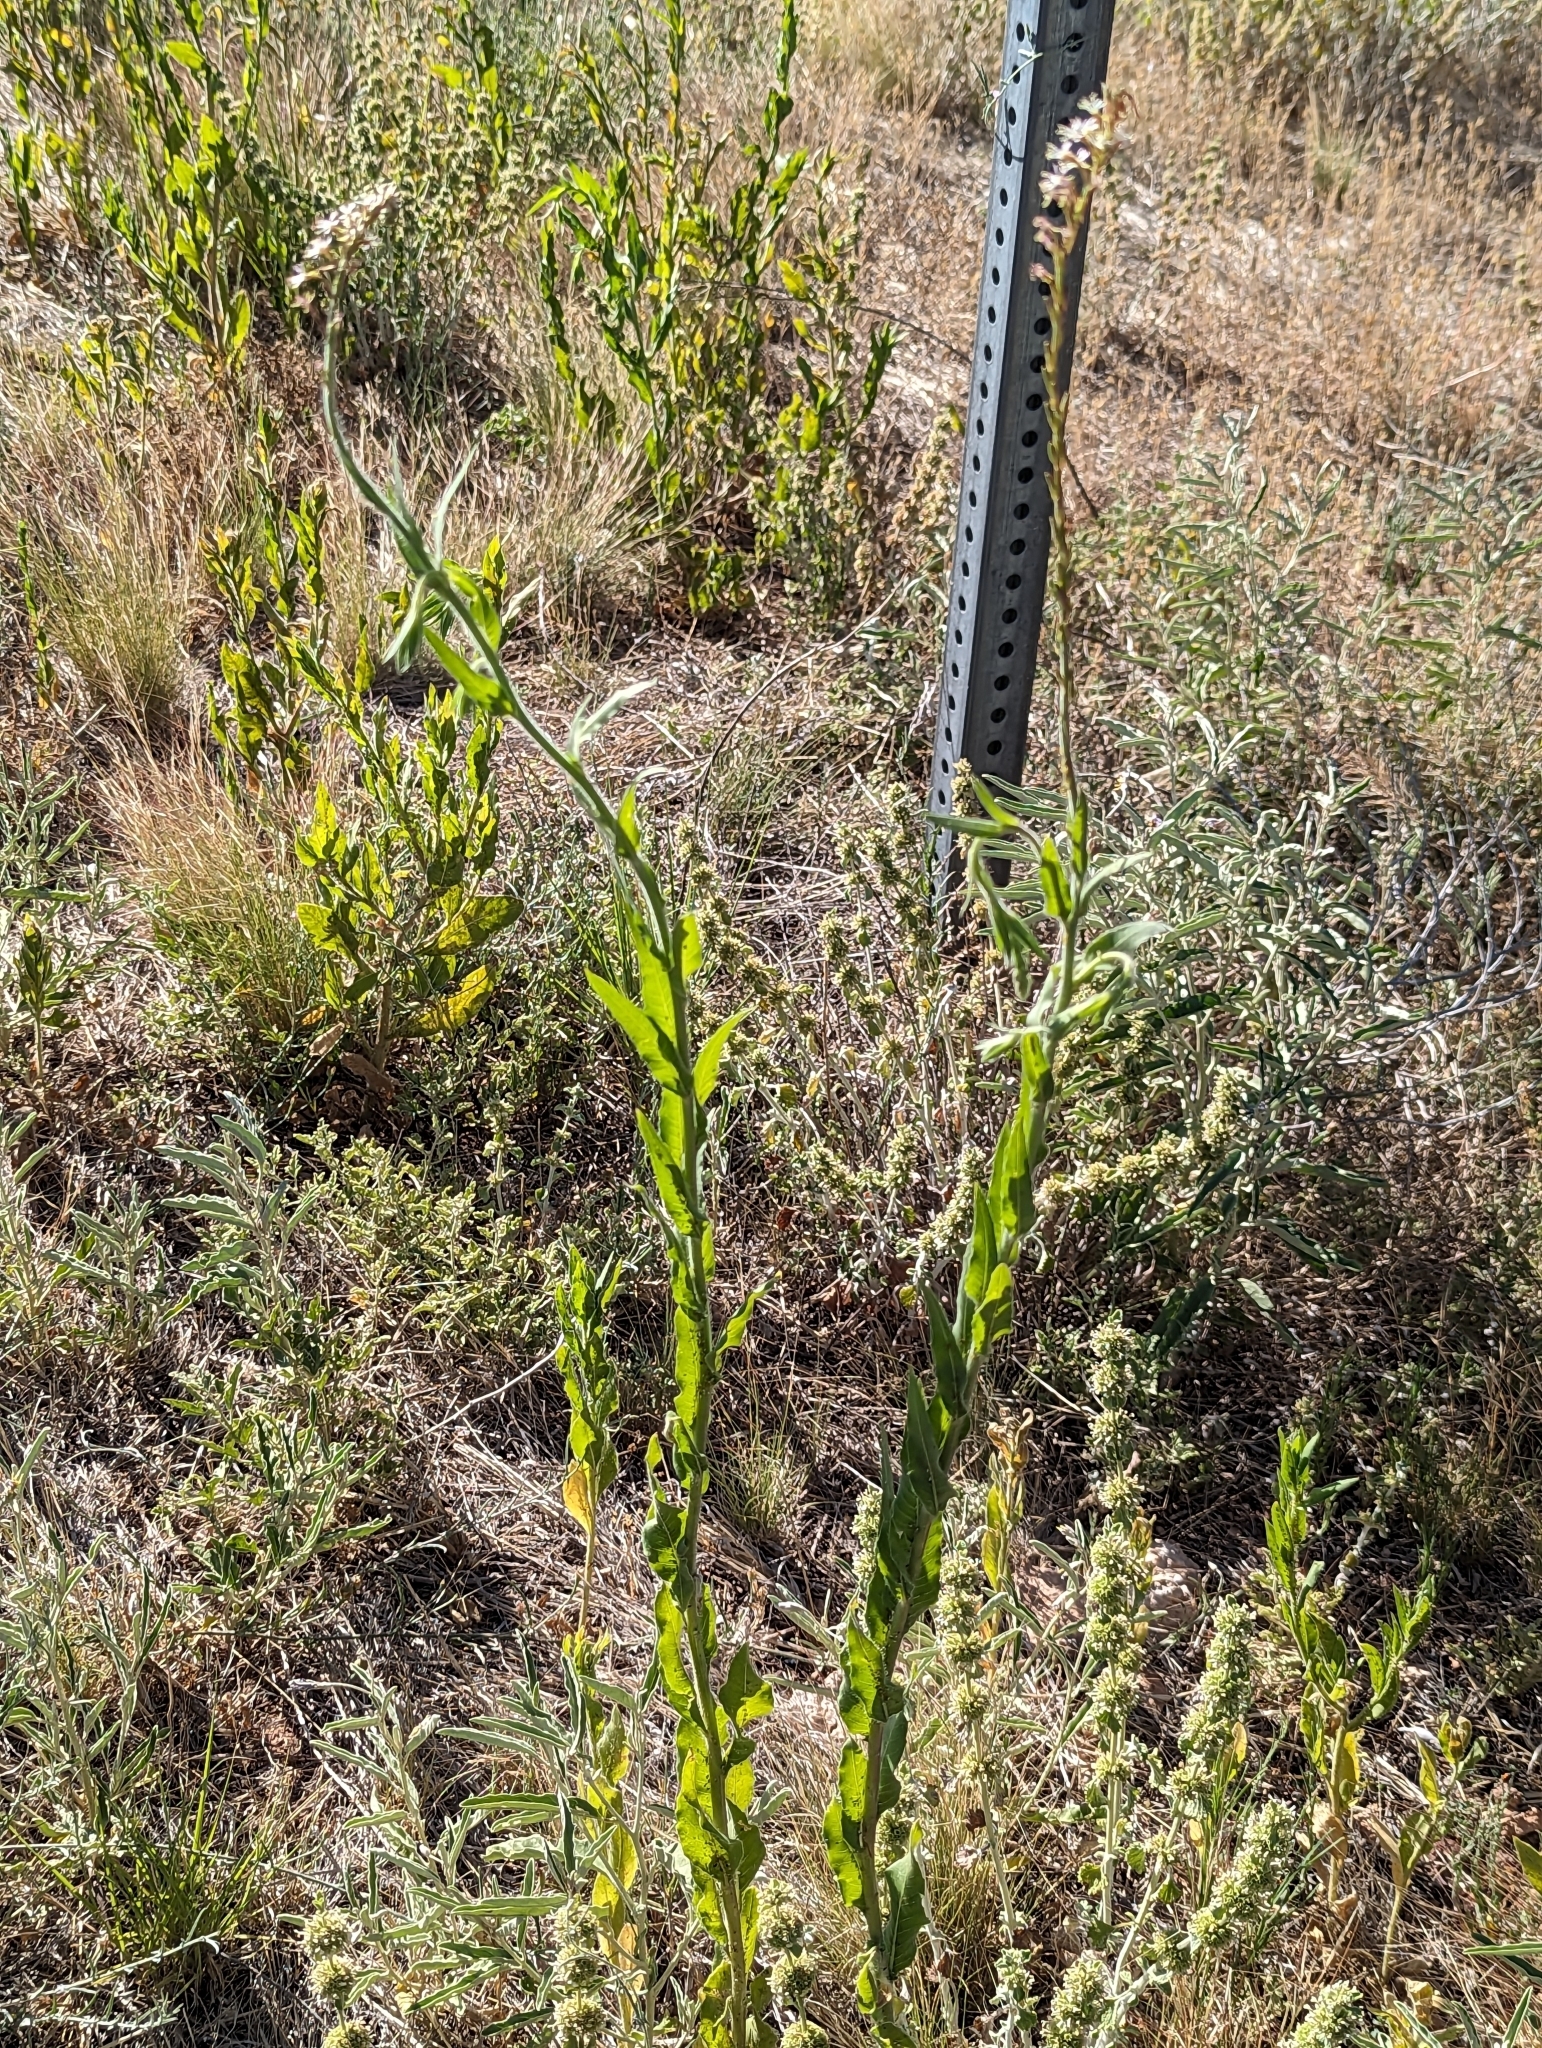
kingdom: Plantae
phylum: Tracheophyta
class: Magnoliopsida
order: Myrtales
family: Onagraceae
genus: Oenothera
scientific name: Oenothera curtiflora
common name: Velvetweed
